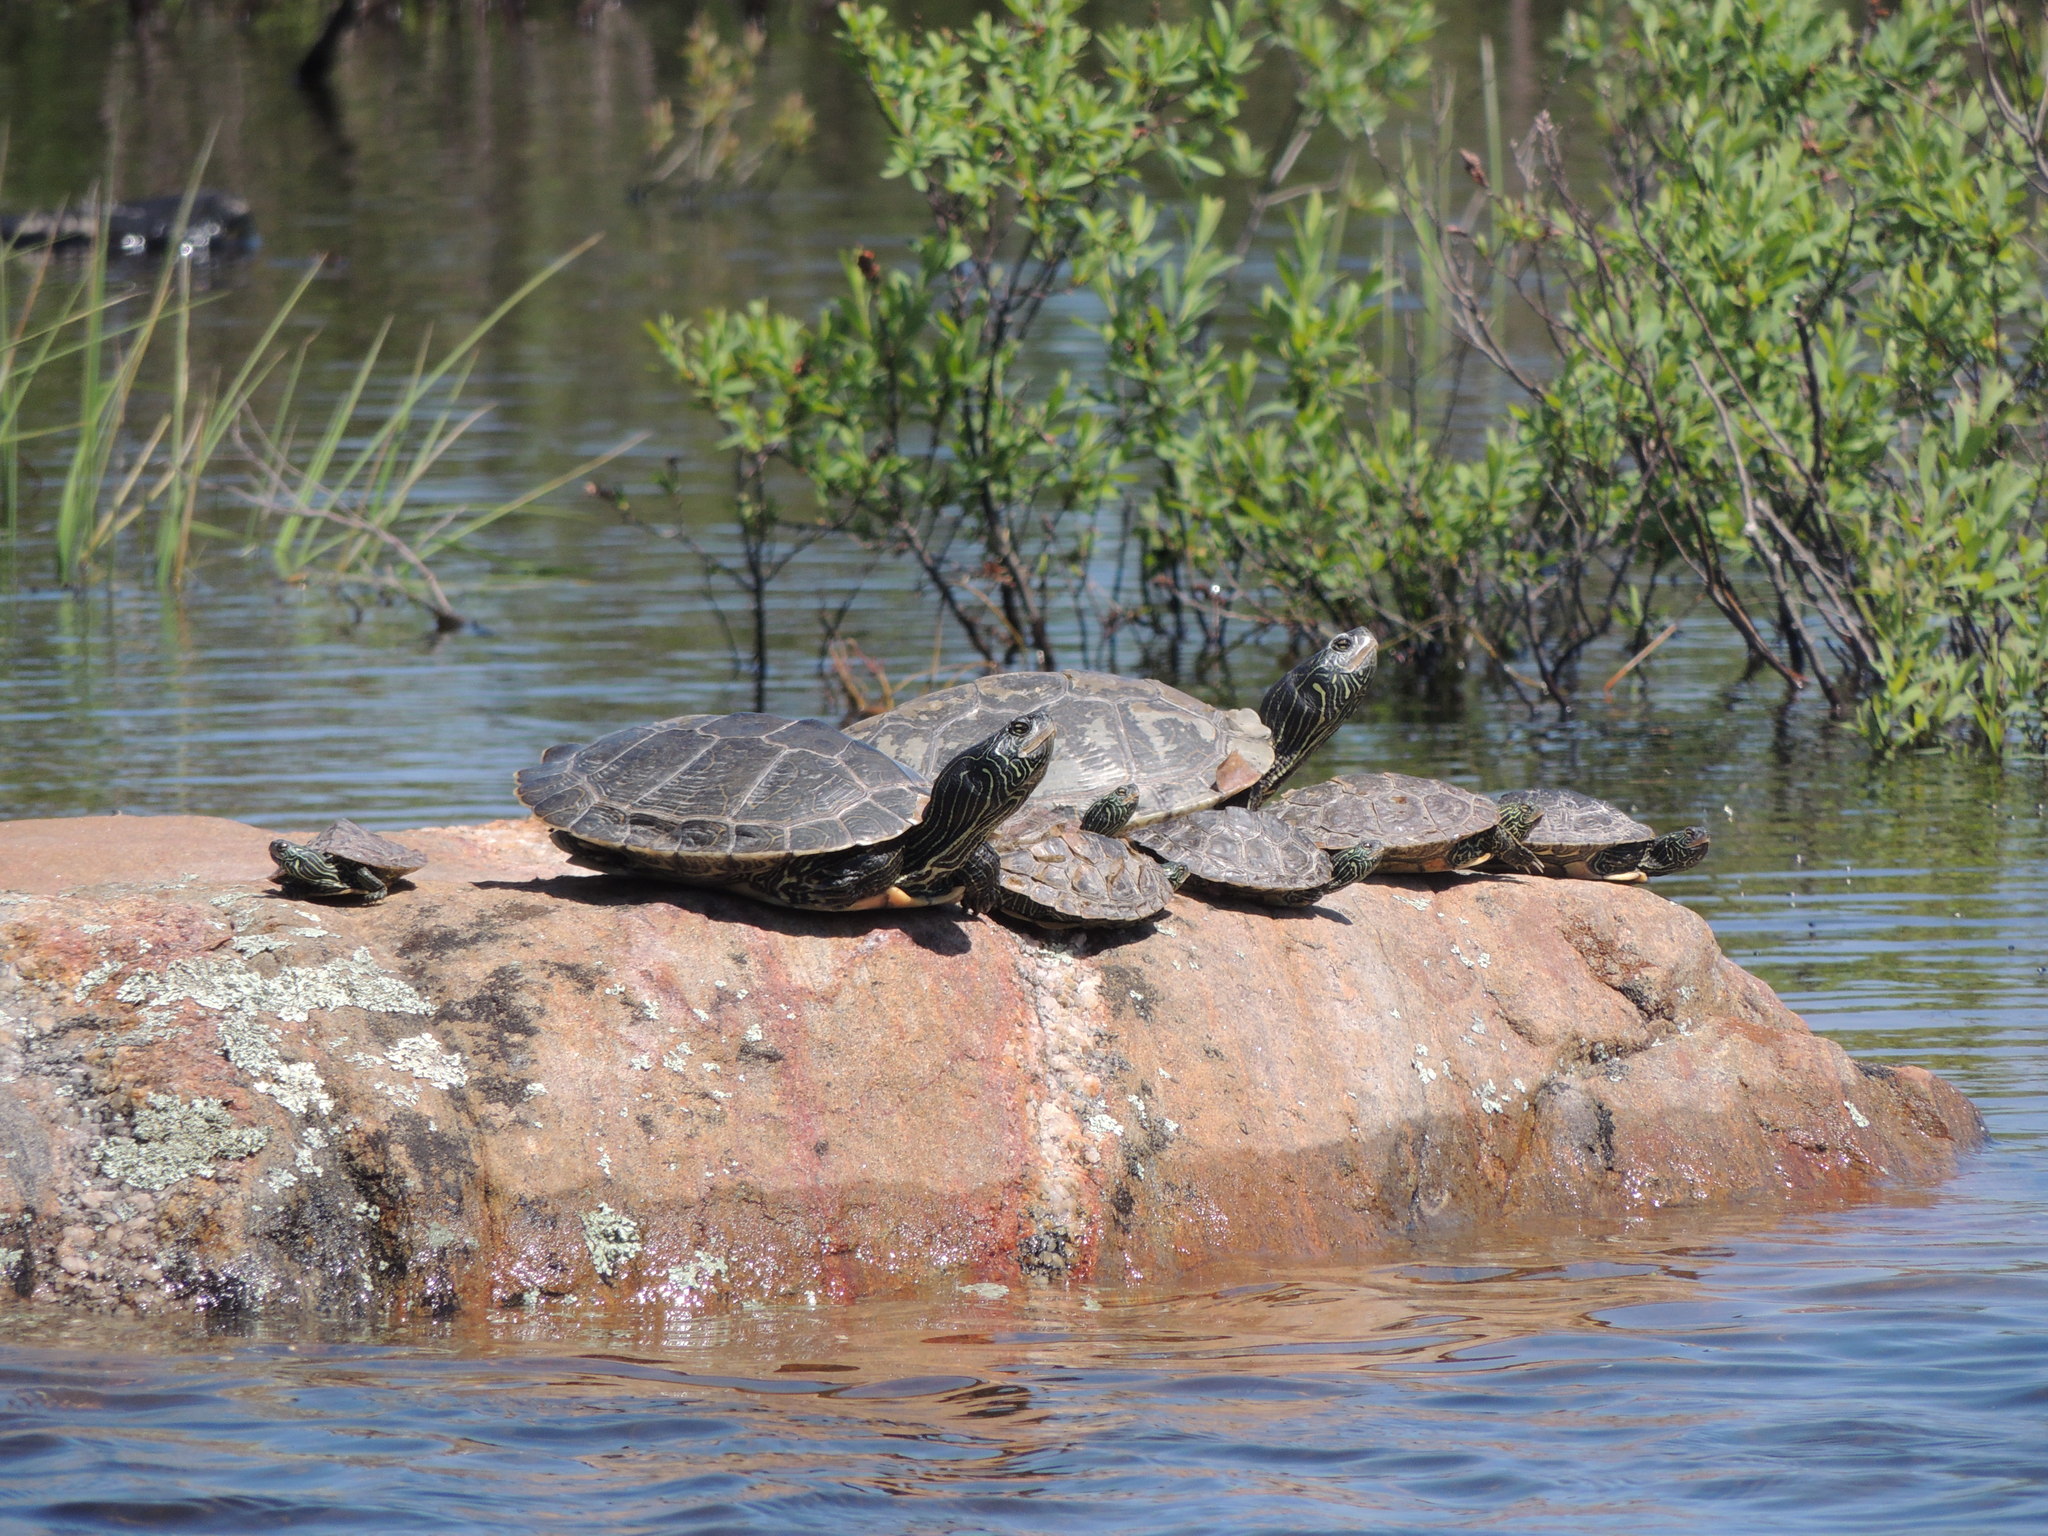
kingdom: Animalia
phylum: Chordata
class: Testudines
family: Emydidae
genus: Graptemys
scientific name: Graptemys geographica
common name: Common map turtle
